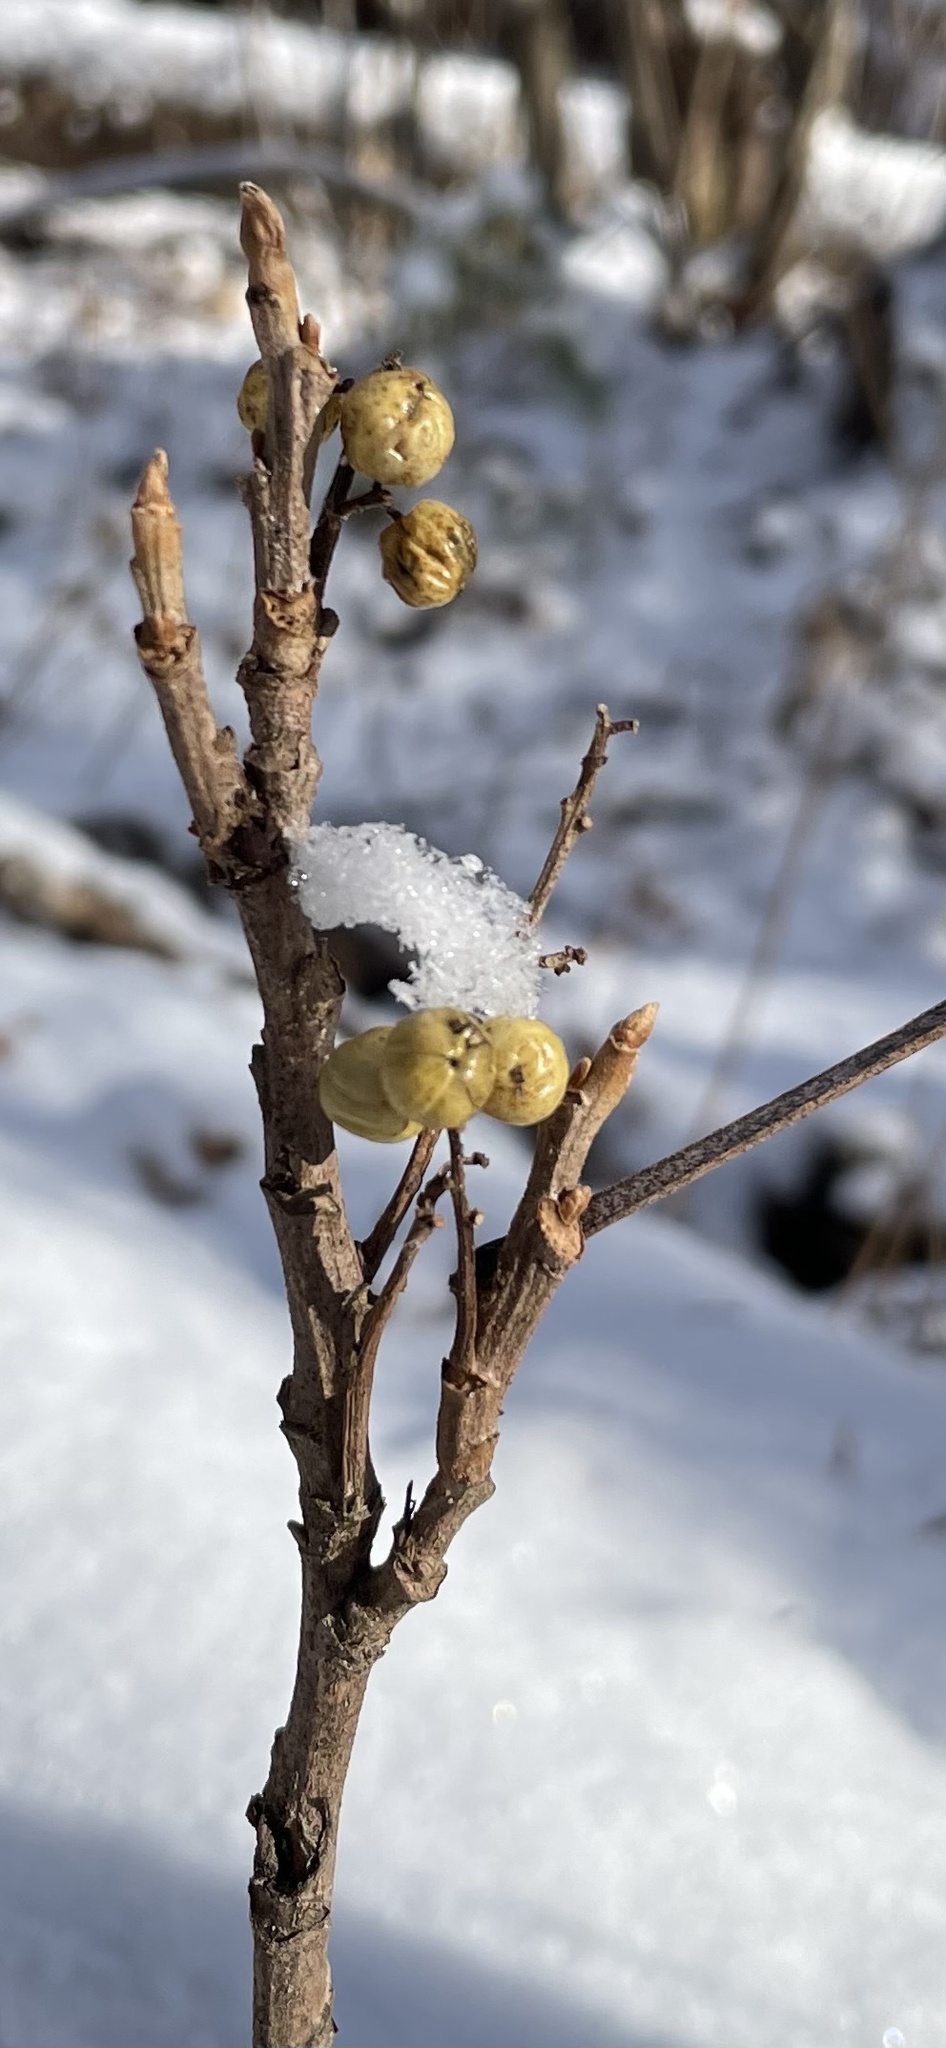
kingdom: Plantae
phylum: Tracheophyta
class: Magnoliopsida
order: Sapindales
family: Anacardiaceae
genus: Toxicodendron
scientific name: Toxicodendron rydbergii
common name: Rydberg's poison-ivy
